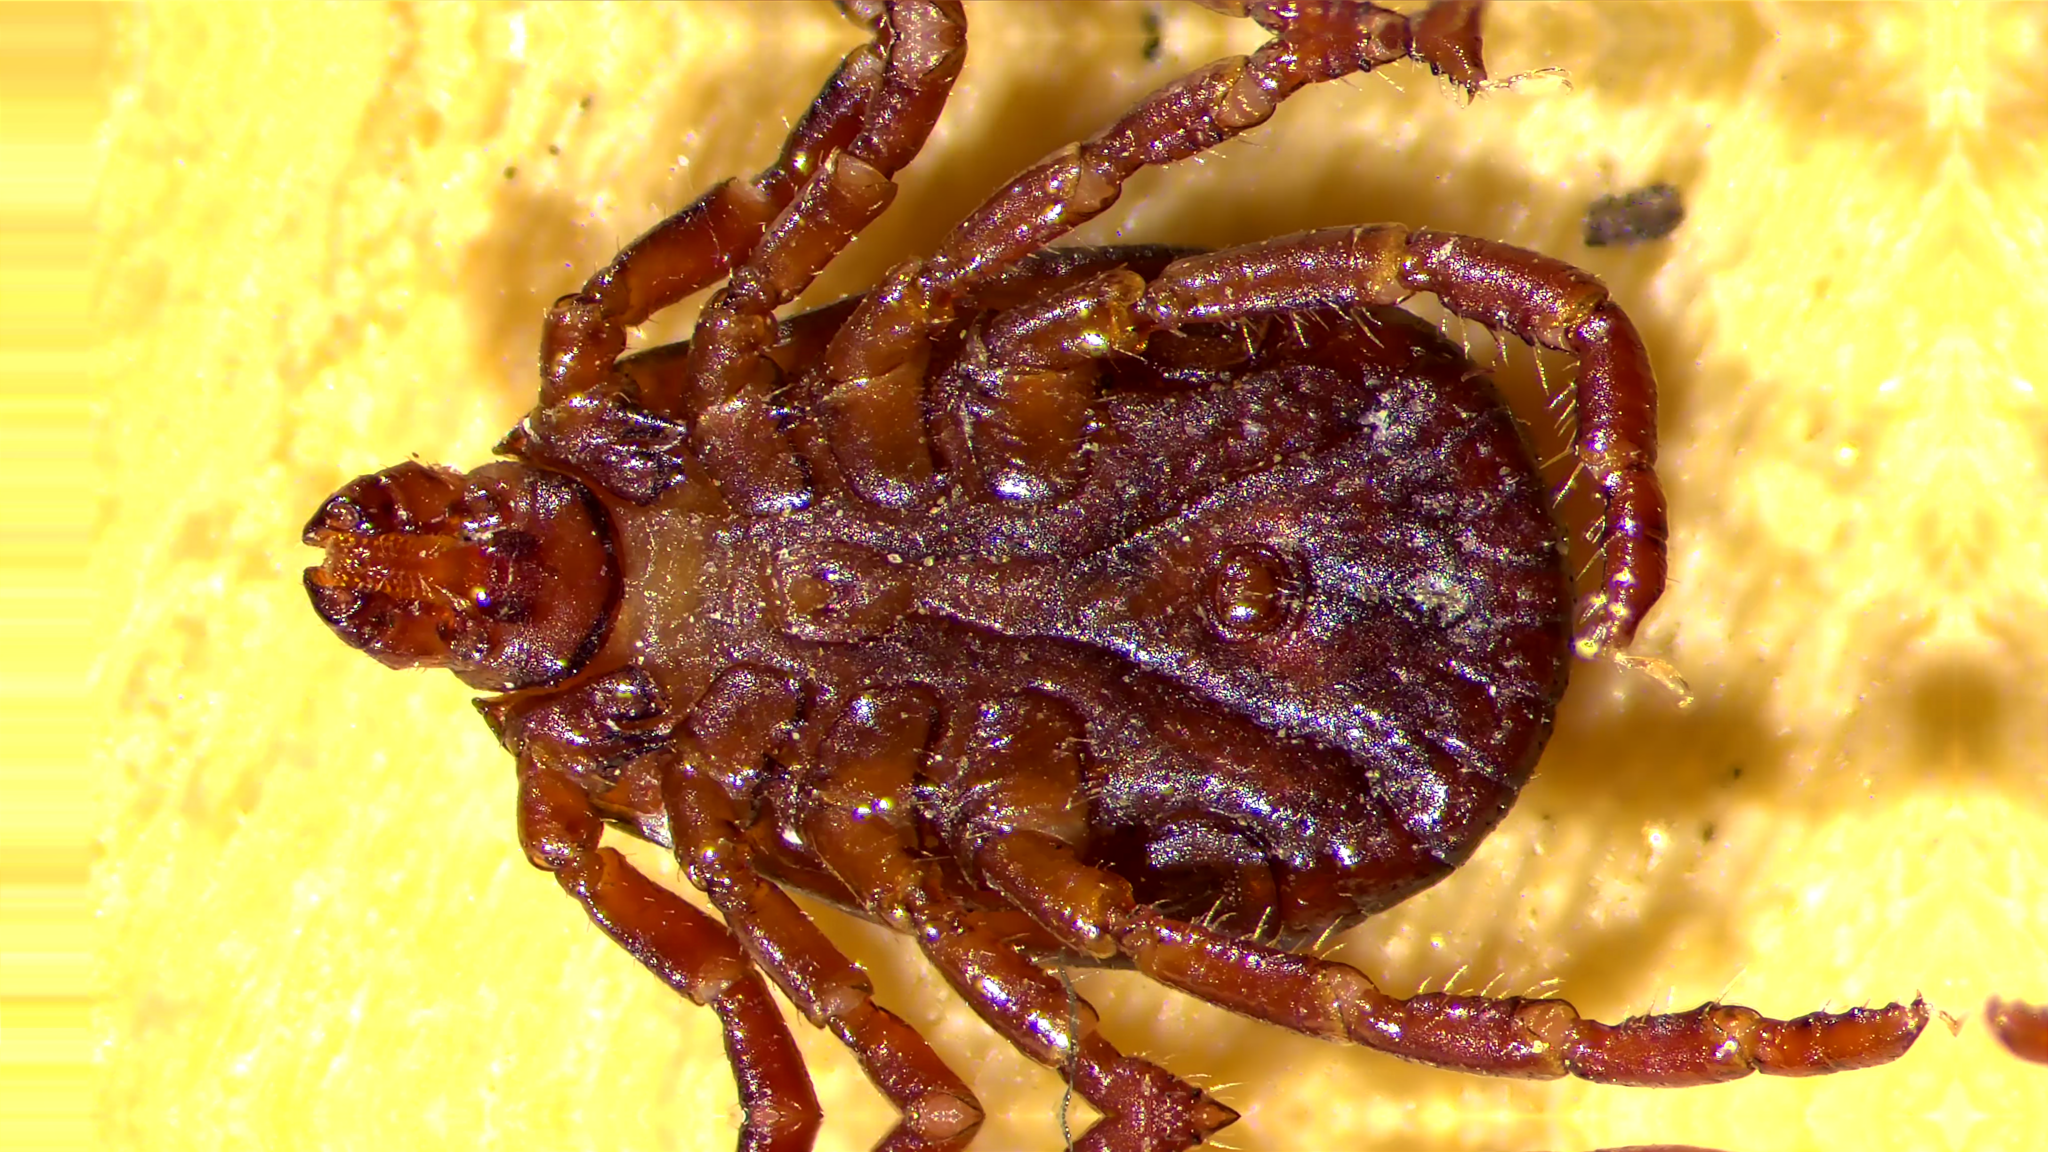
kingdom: Animalia
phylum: Arthropoda
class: Arachnida
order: Ixodida
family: Ixodidae
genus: Dermacentor
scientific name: Dermacentor variabilis
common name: American dog tick
